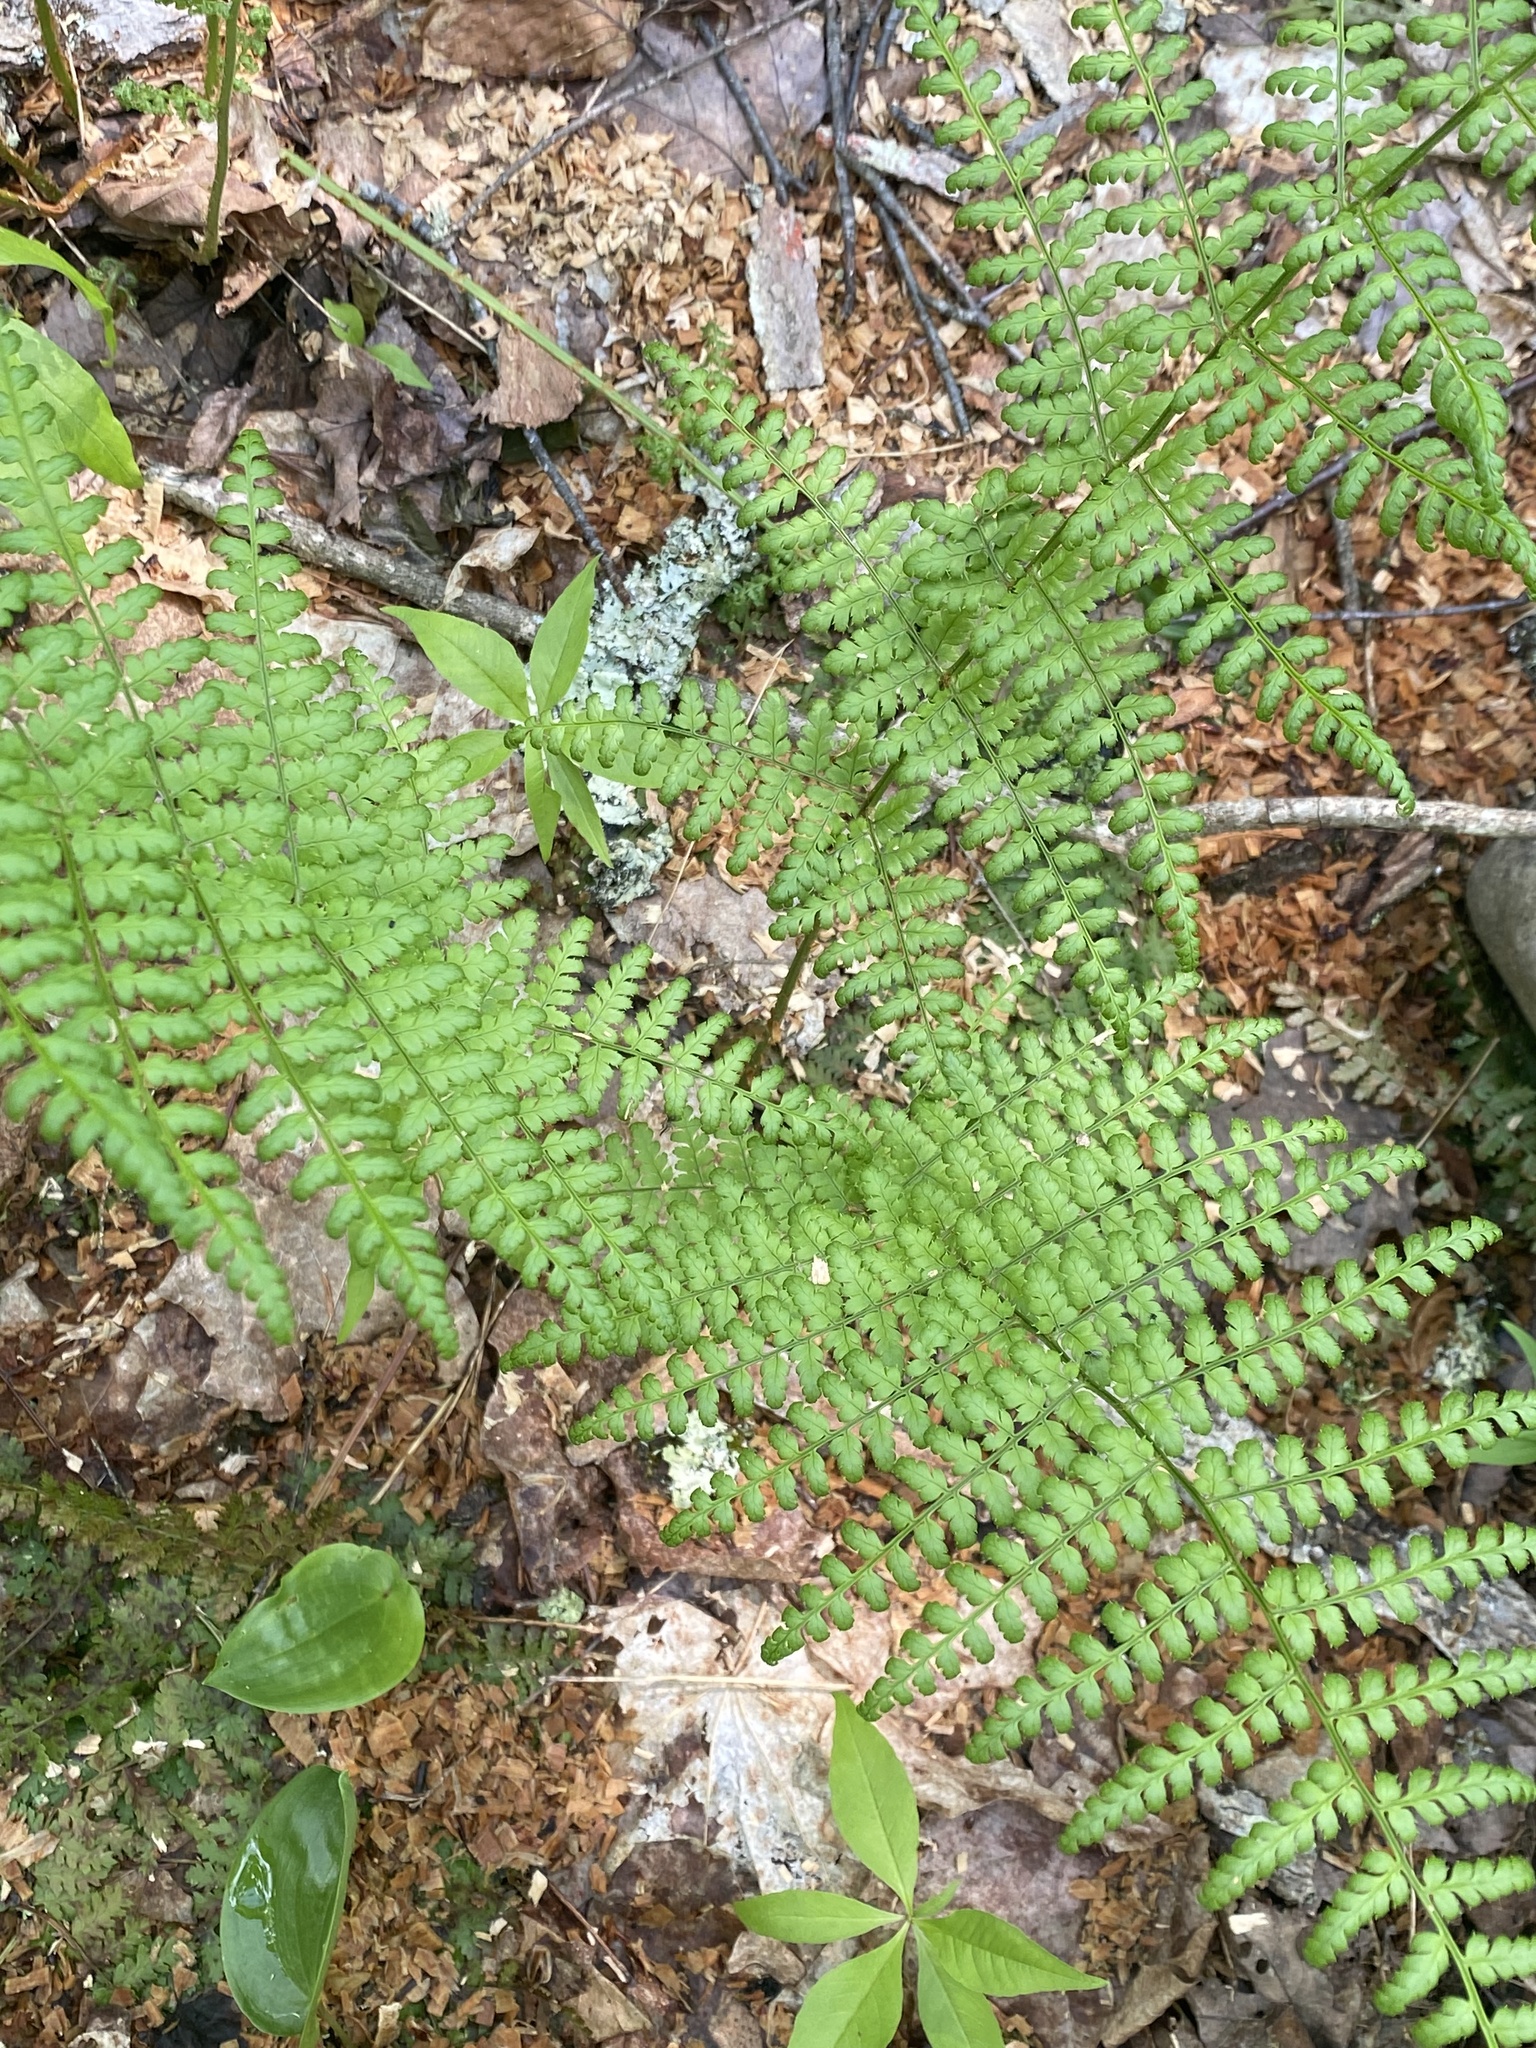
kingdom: Plantae
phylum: Tracheophyta
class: Polypodiopsida
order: Polypodiales
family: Dryopteridaceae
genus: Dryopteris
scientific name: Dryopteris intermedia
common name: Evergreen wood fern
